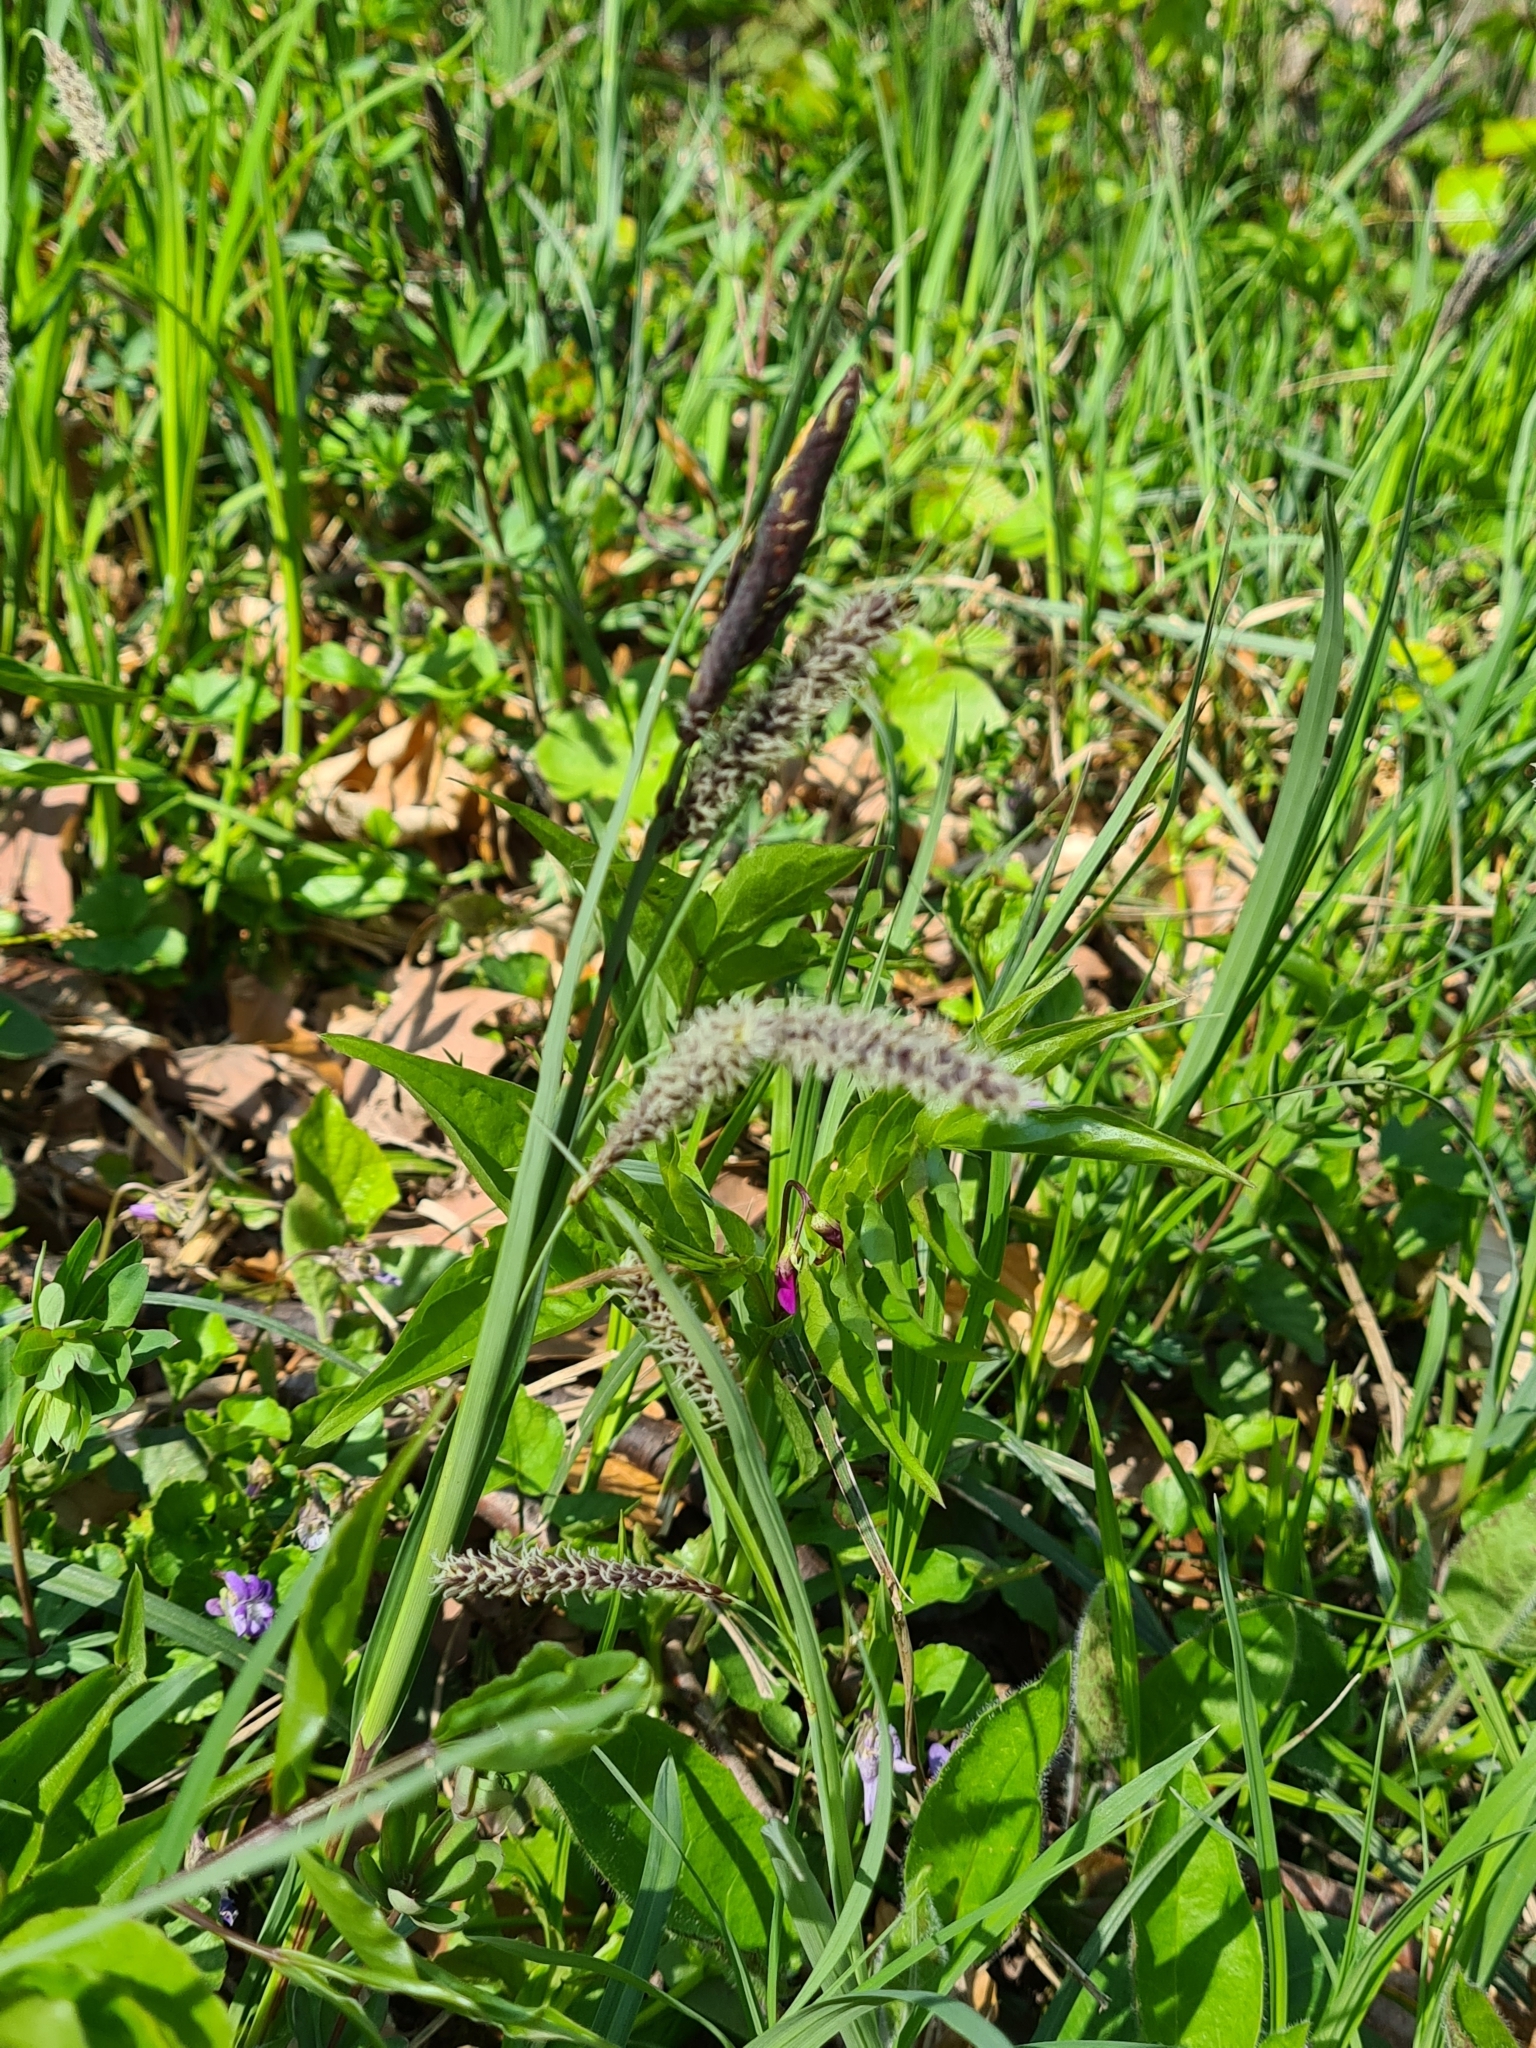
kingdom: Plantae
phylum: Tracheophyta
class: Liliopsida
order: Poales
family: Cyperaceae
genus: Carex
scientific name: Carex flacca
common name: Glaucous sedge
